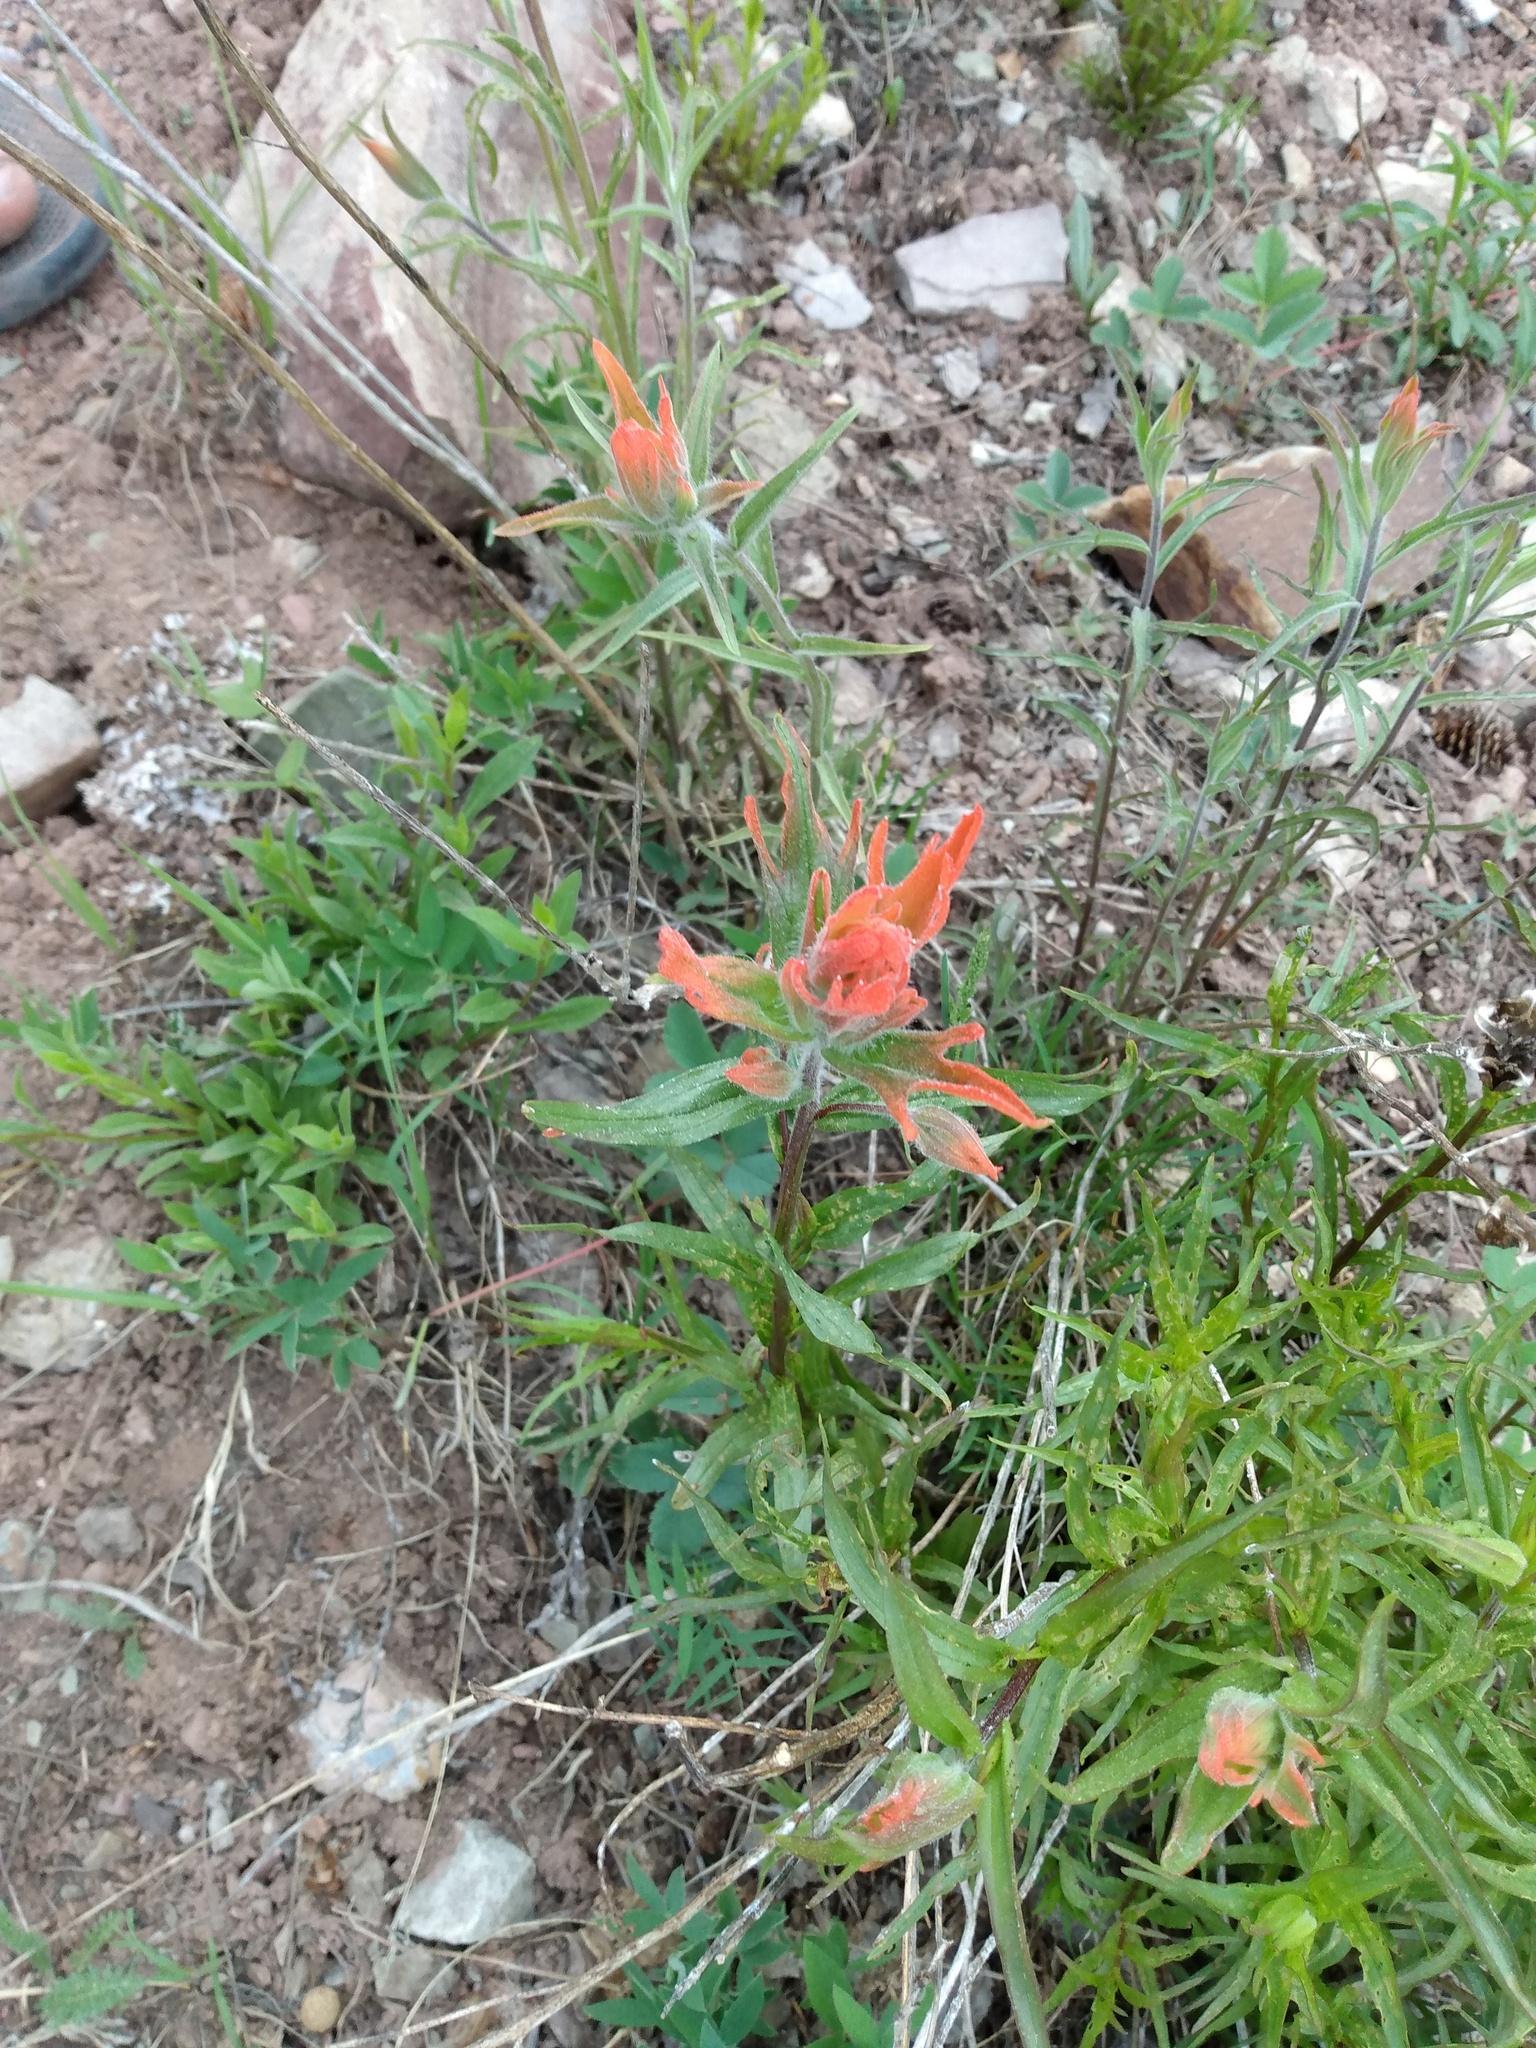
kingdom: Plantae
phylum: Tracheophyta
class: Magnoliopsida
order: Lamiales
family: Orobanchaceae
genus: Castilleja
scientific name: Castilleja miniata
